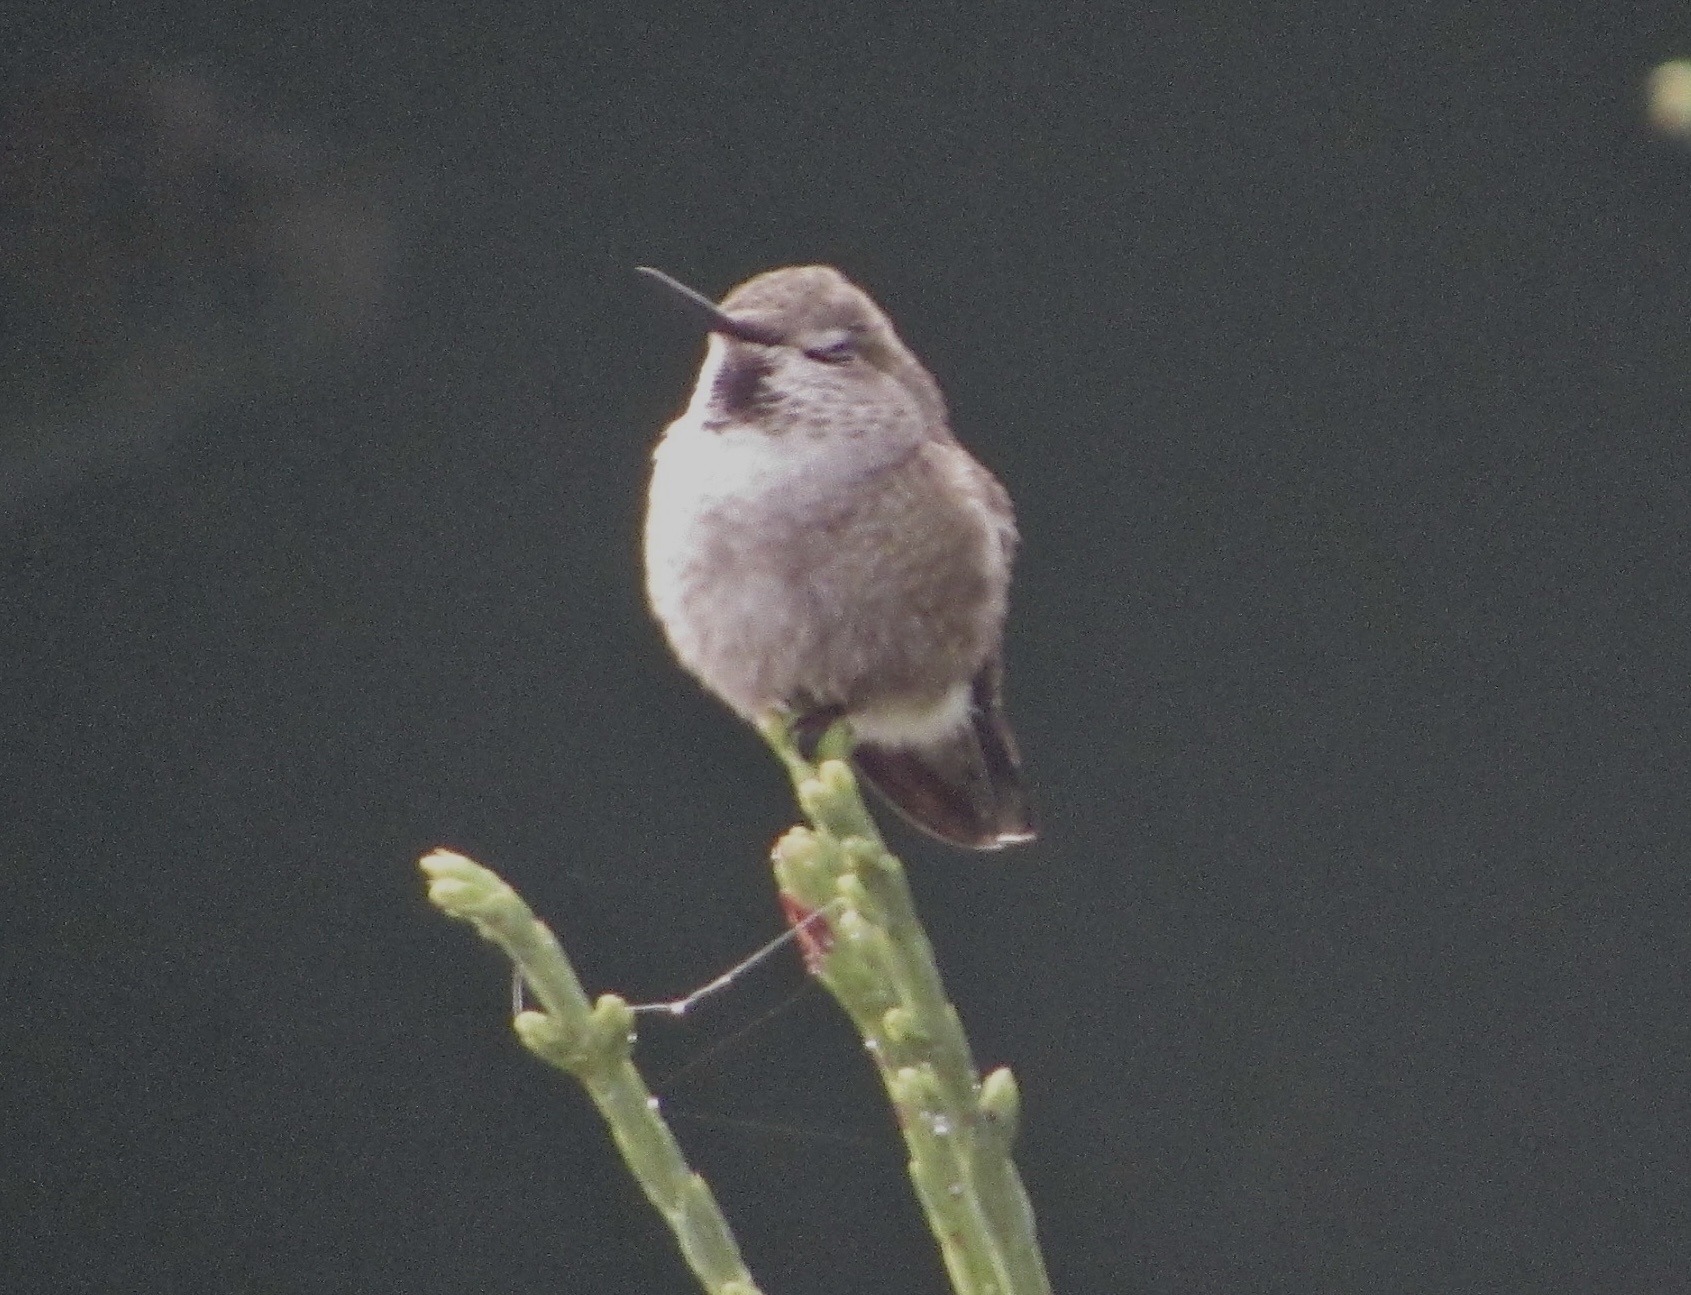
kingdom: Animalia
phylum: Chordata
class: Aves
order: Apodiformes
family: Trochilidae
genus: Calypte
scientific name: Calypte anna
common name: Anna's hummingbird
